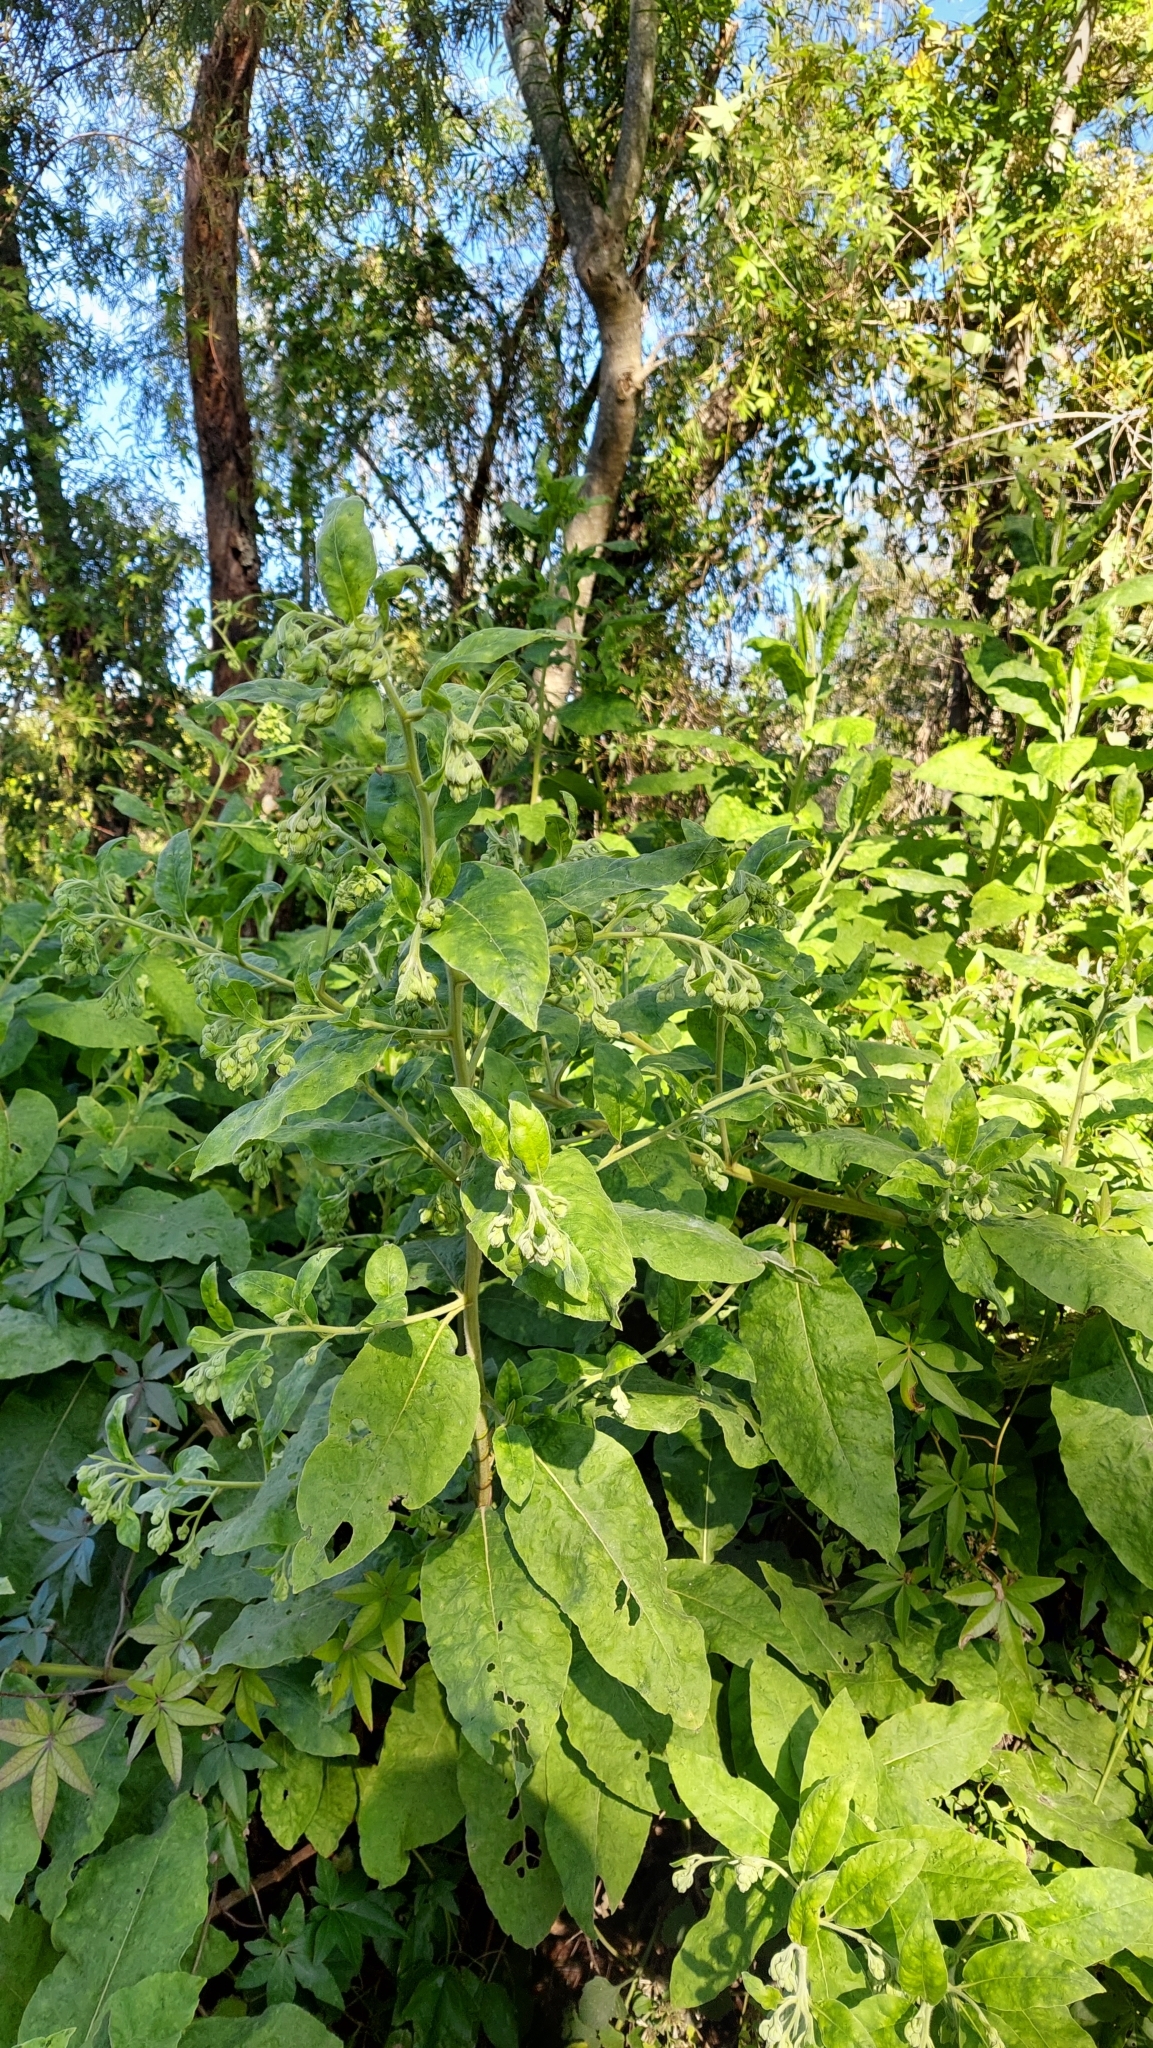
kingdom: Plantae
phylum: Tracheophyta
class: Magnoliopsida
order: Asterales
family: Asteraceae
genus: Trixis
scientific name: Trixis praestans
